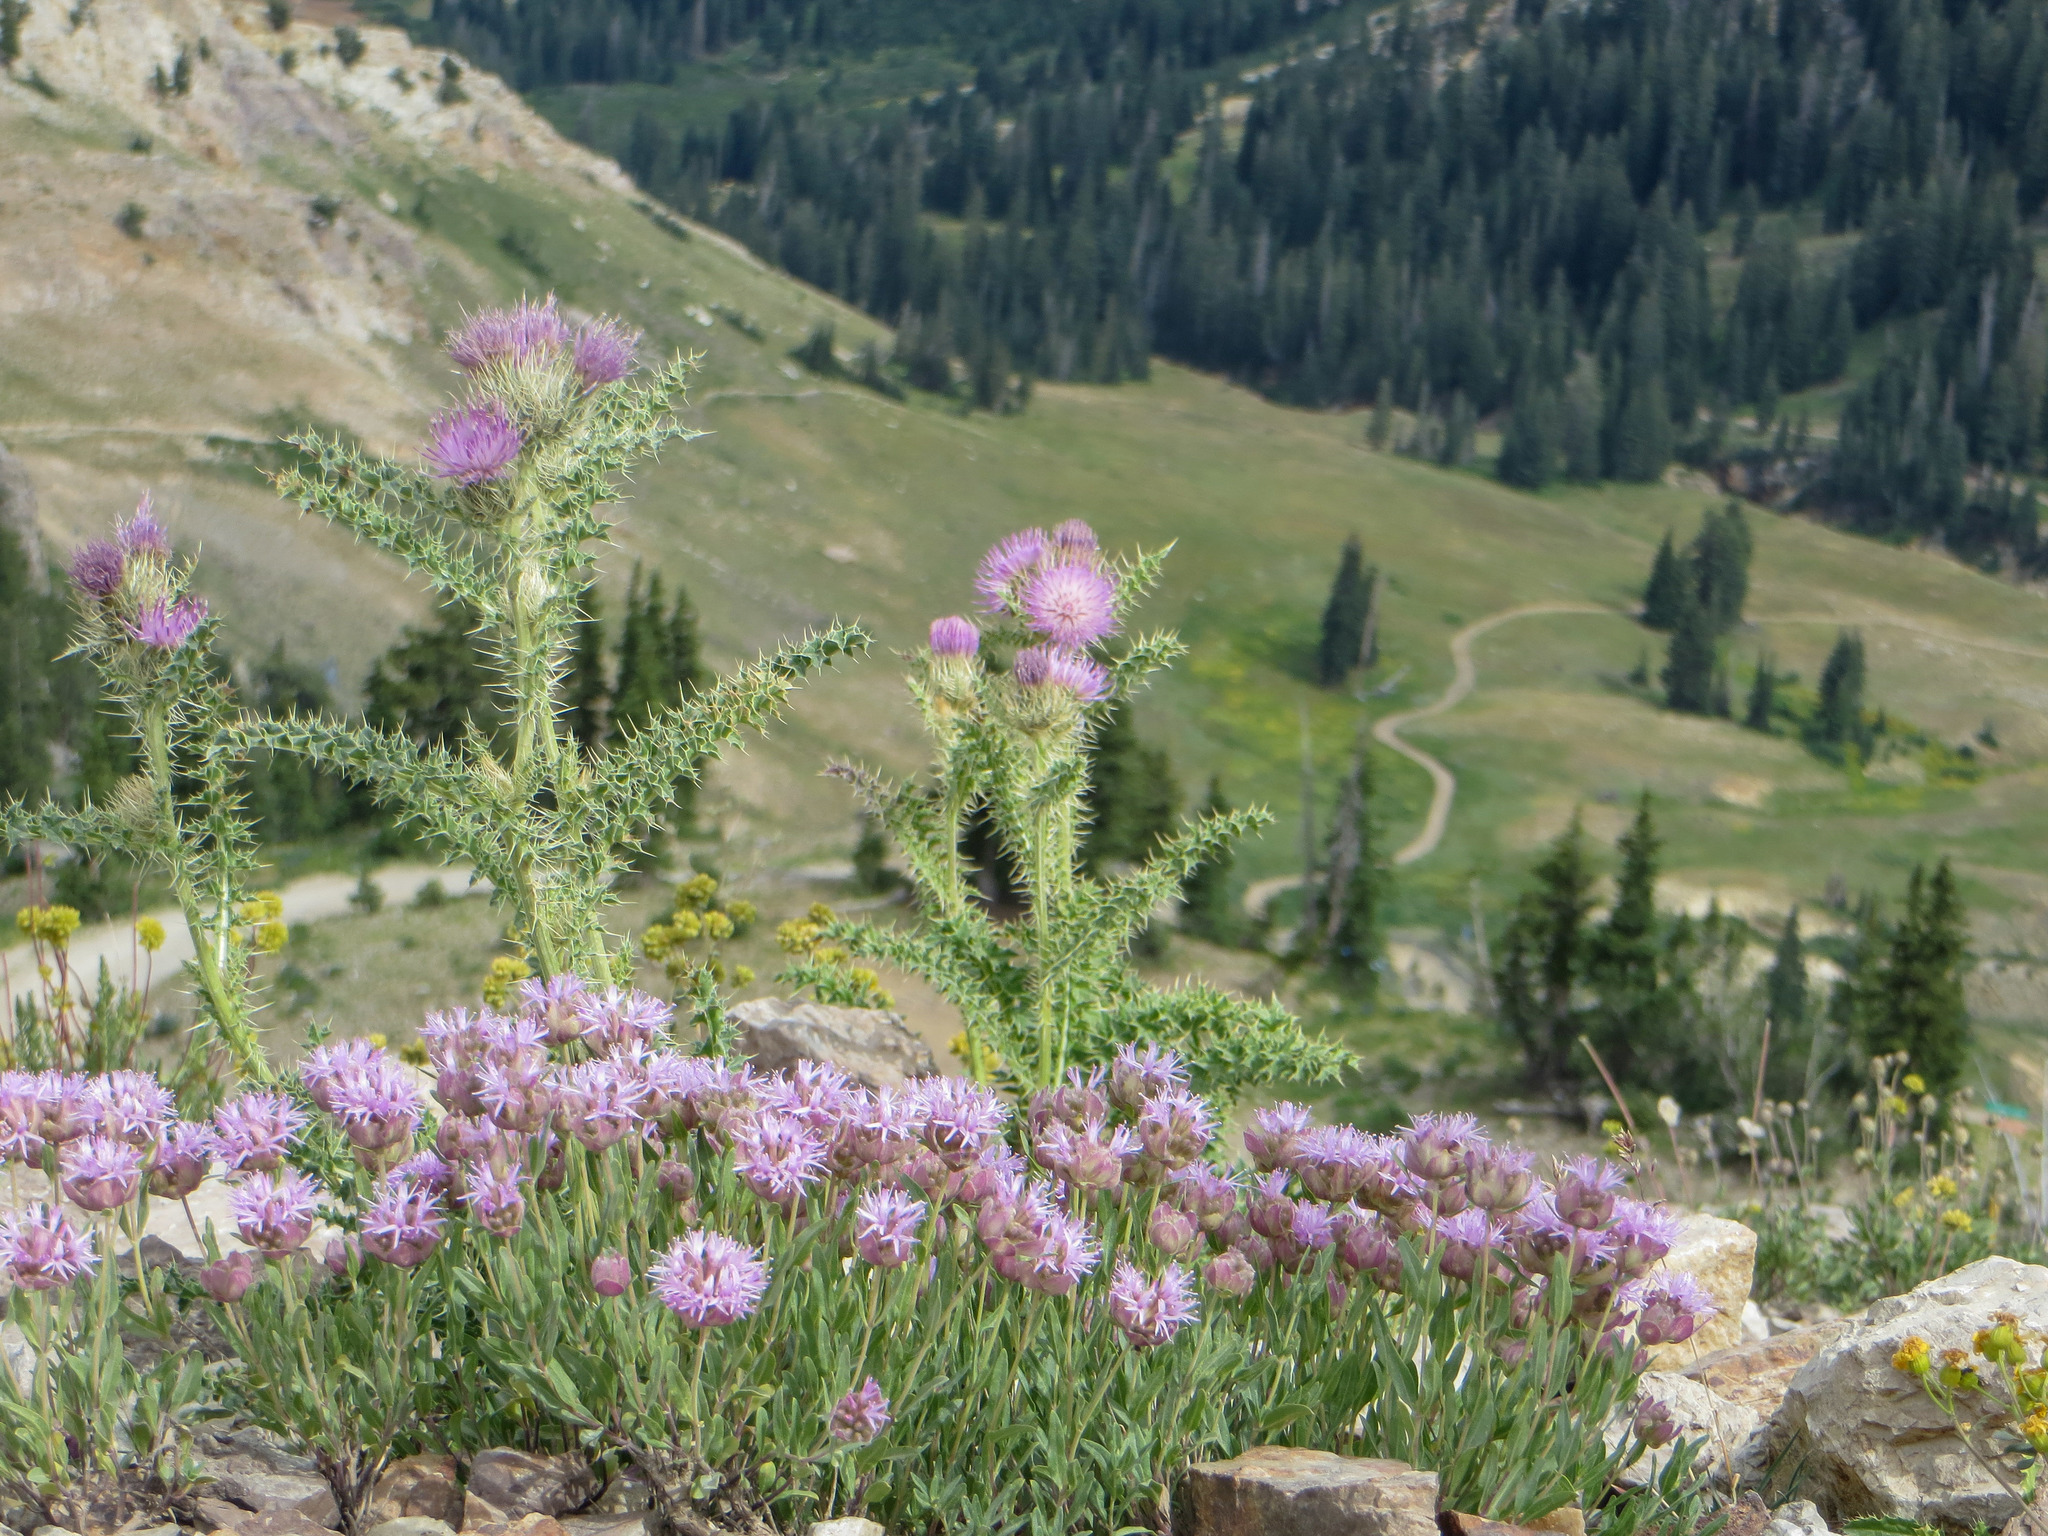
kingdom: Plantae
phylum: Tracheophyta
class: Magnoliopsida
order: Asterales
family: Asteraceae
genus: Cirsium
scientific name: Cirsium eatonii
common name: Eaton's thistle
